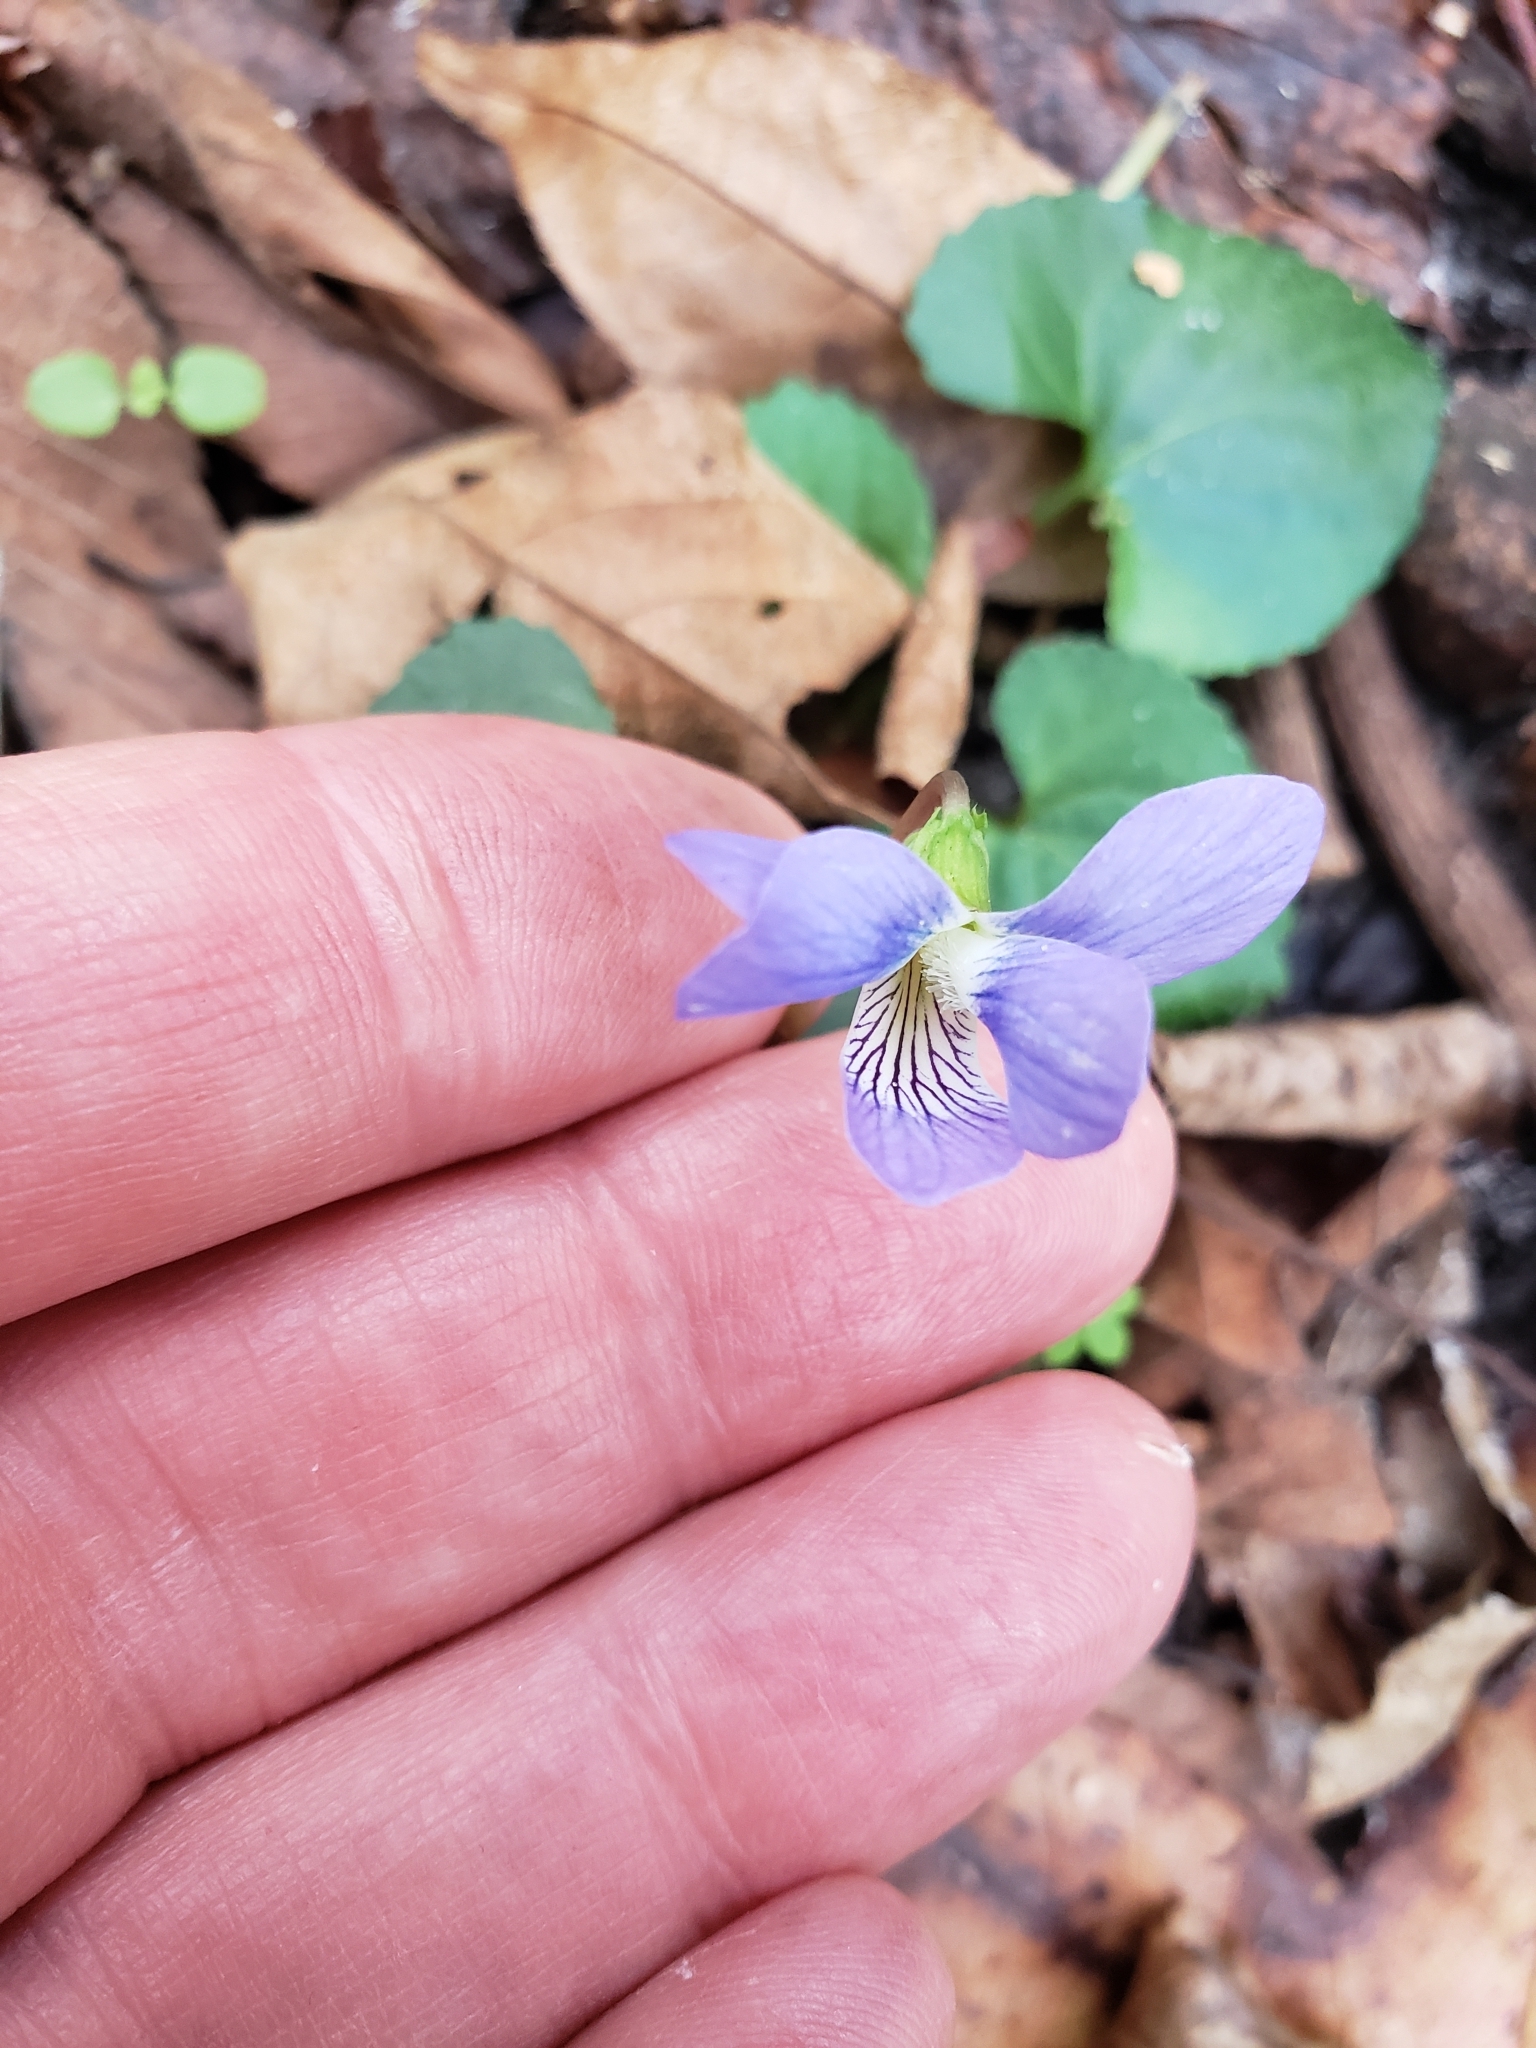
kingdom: Plantae
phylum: Tracheophyta
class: Magnoliopsida
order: Malpighiales
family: Violaceae
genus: Viola
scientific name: Viola sororia
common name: Dooryard violet
